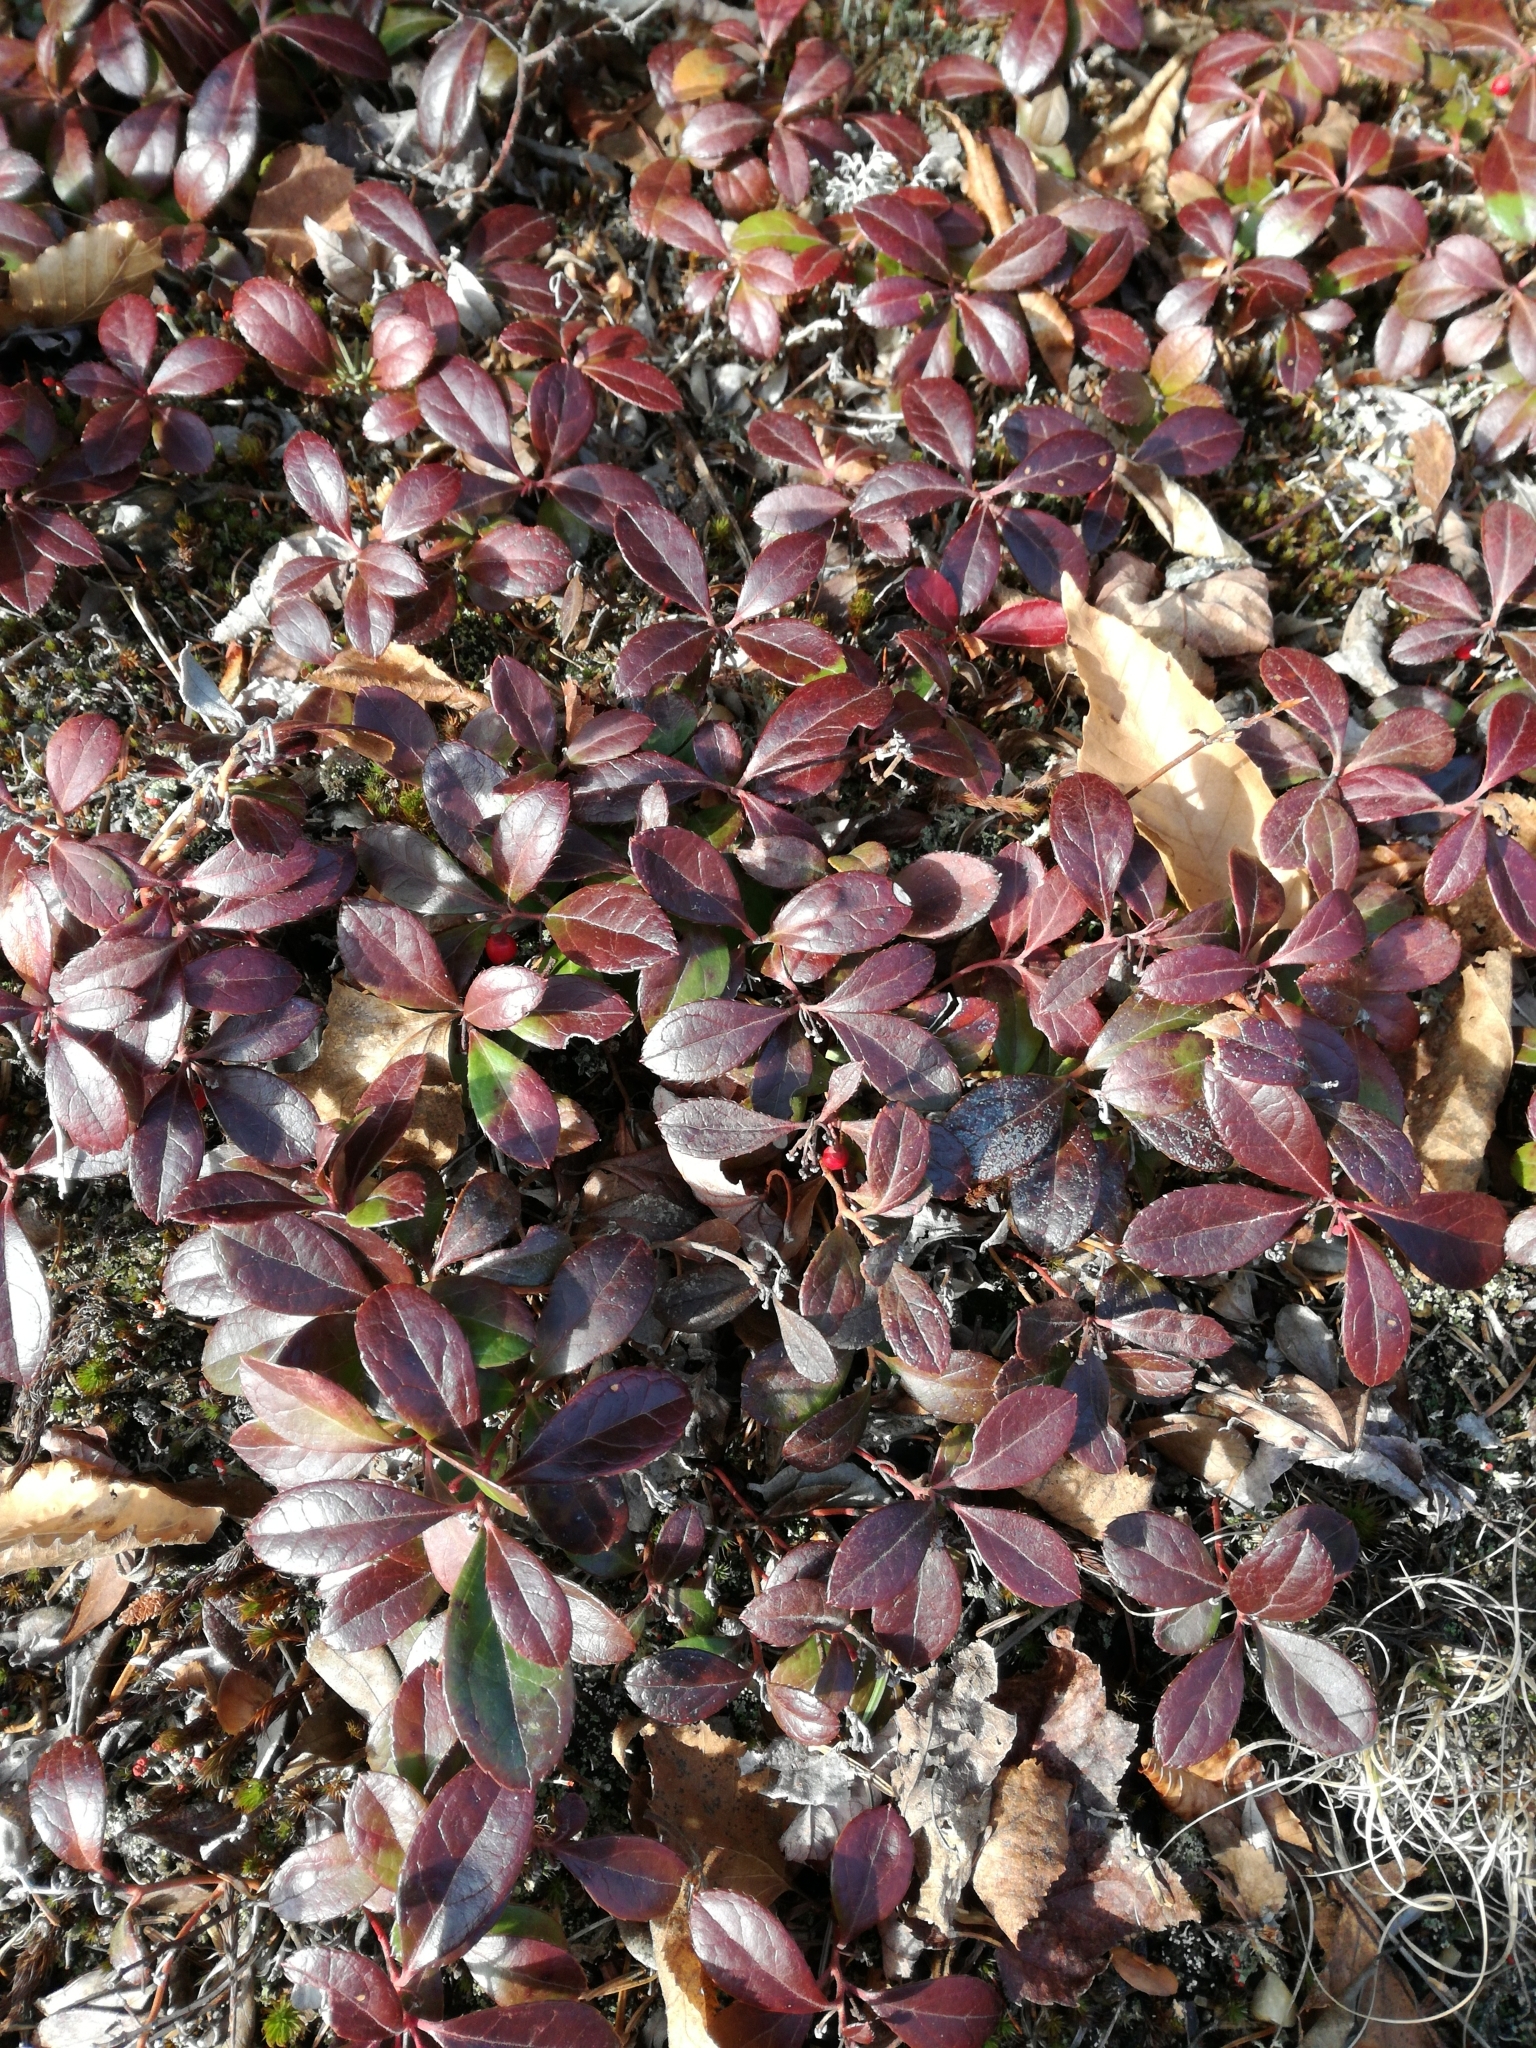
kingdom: Plantae
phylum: Tracheophyta
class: Magnoliopsida
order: Ericales
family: Ericaceae
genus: Gaultheria
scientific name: Gaultheria procumbens
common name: Checkerberry
